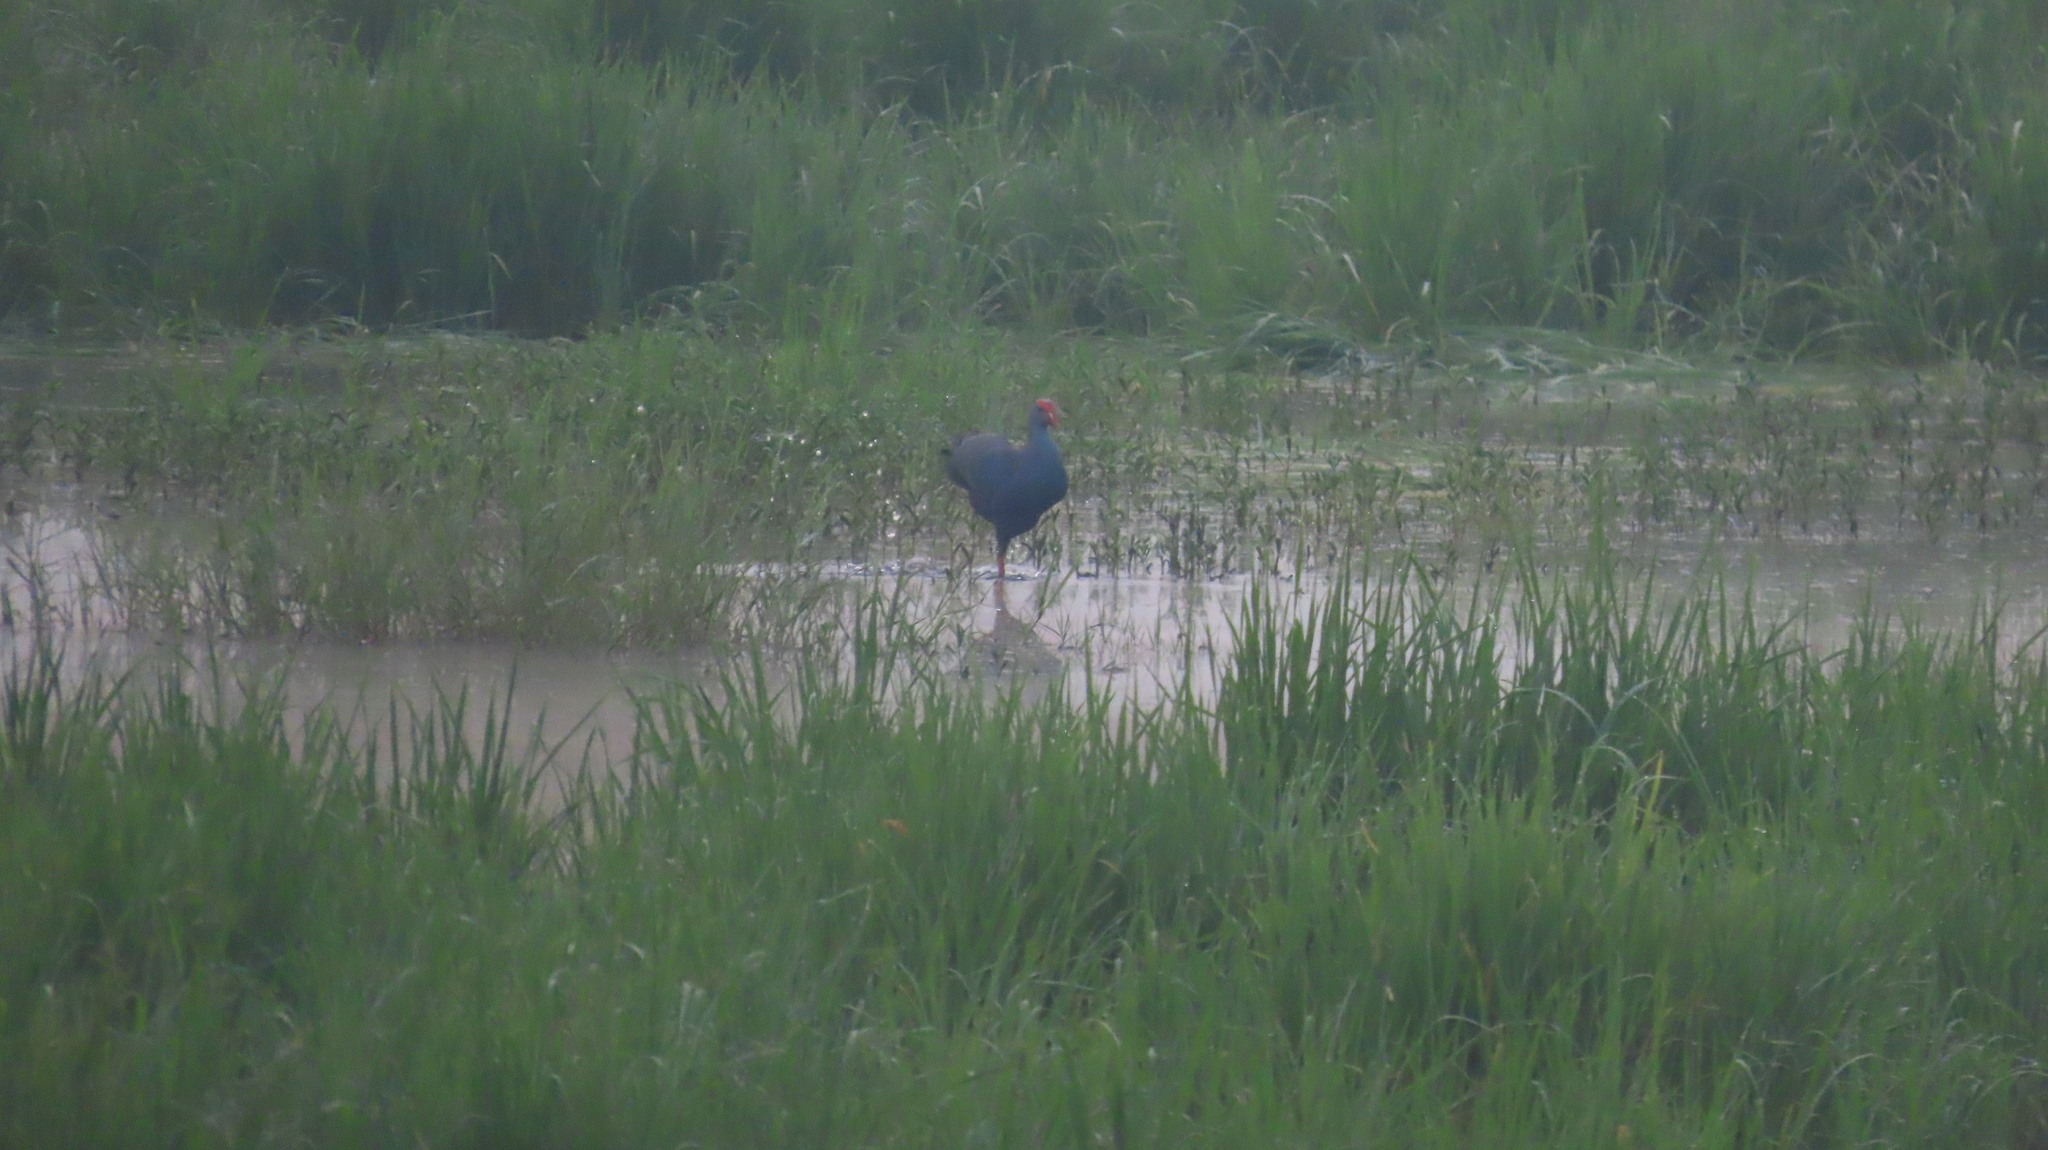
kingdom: Animalia
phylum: Chordata
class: Aves
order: Gruiformes
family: Rallidae
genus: Porphyrio
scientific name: Porphyrio porphyrio
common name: Purple swamphen
